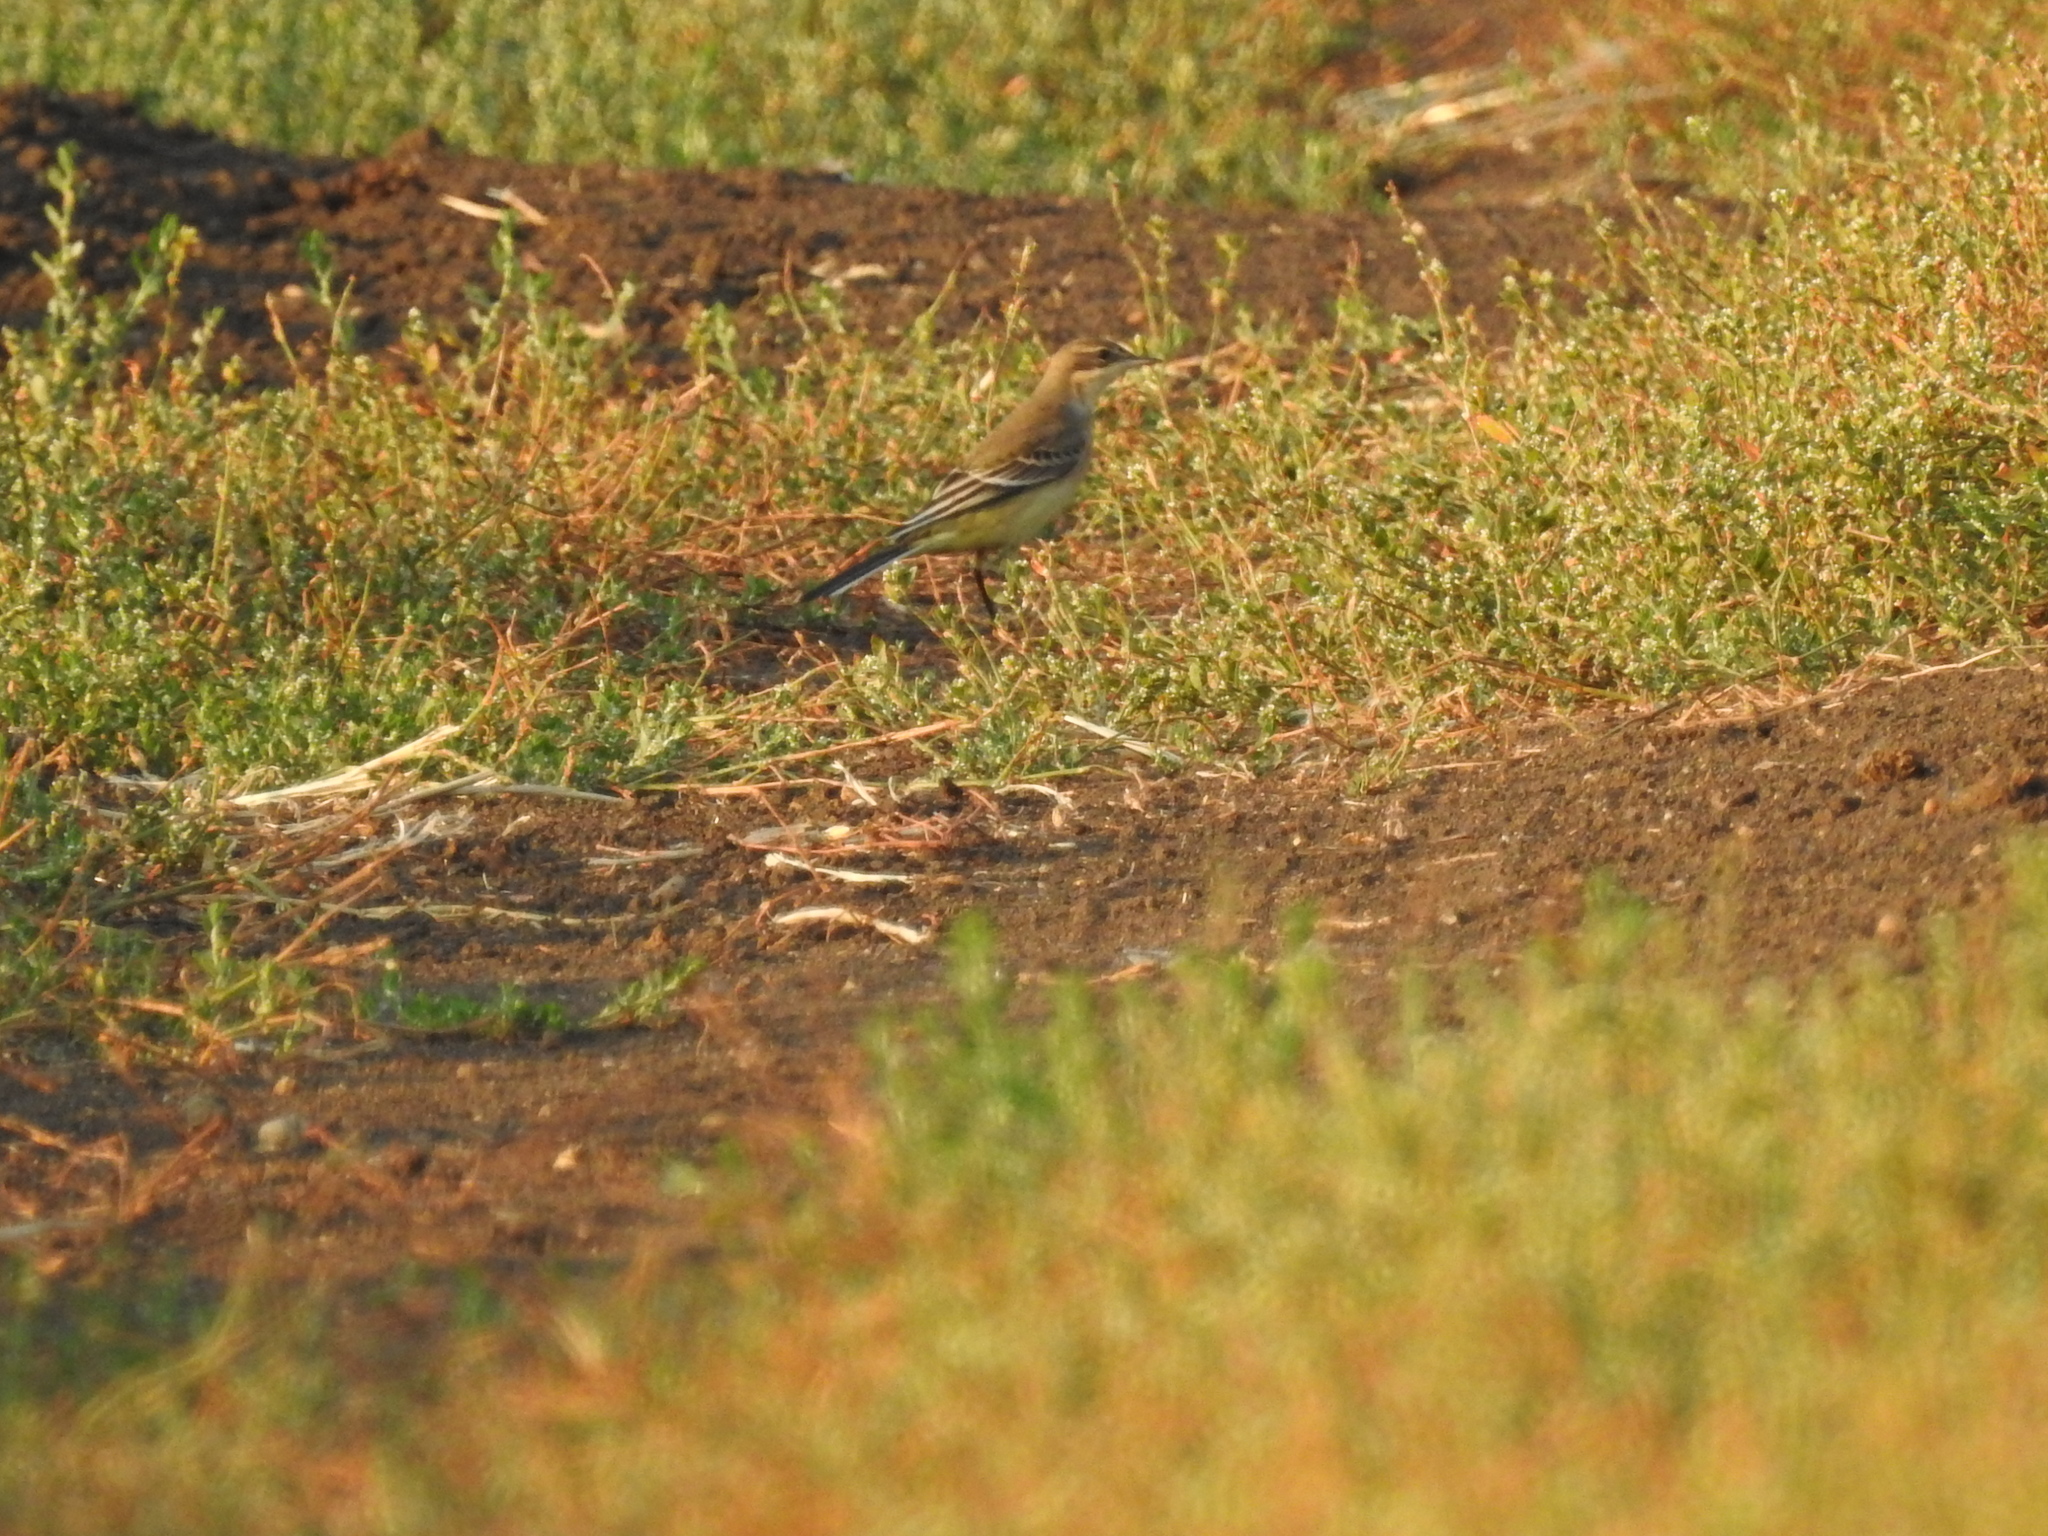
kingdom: Animalia
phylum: Chordata
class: Aves
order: Passeriformes
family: Motacillidae
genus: Motacilla
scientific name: Motacilla flava
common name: Western yellow wagtail
